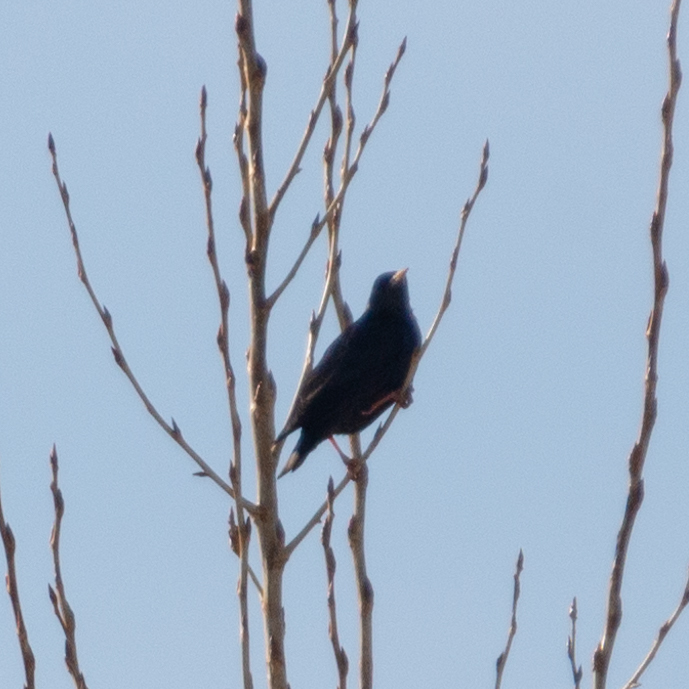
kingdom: Animalia
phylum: Chordata
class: Aves
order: Passeriformes
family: Sturnidae
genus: Sturnus
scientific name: Sturnus unicolor
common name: Spotless starling
